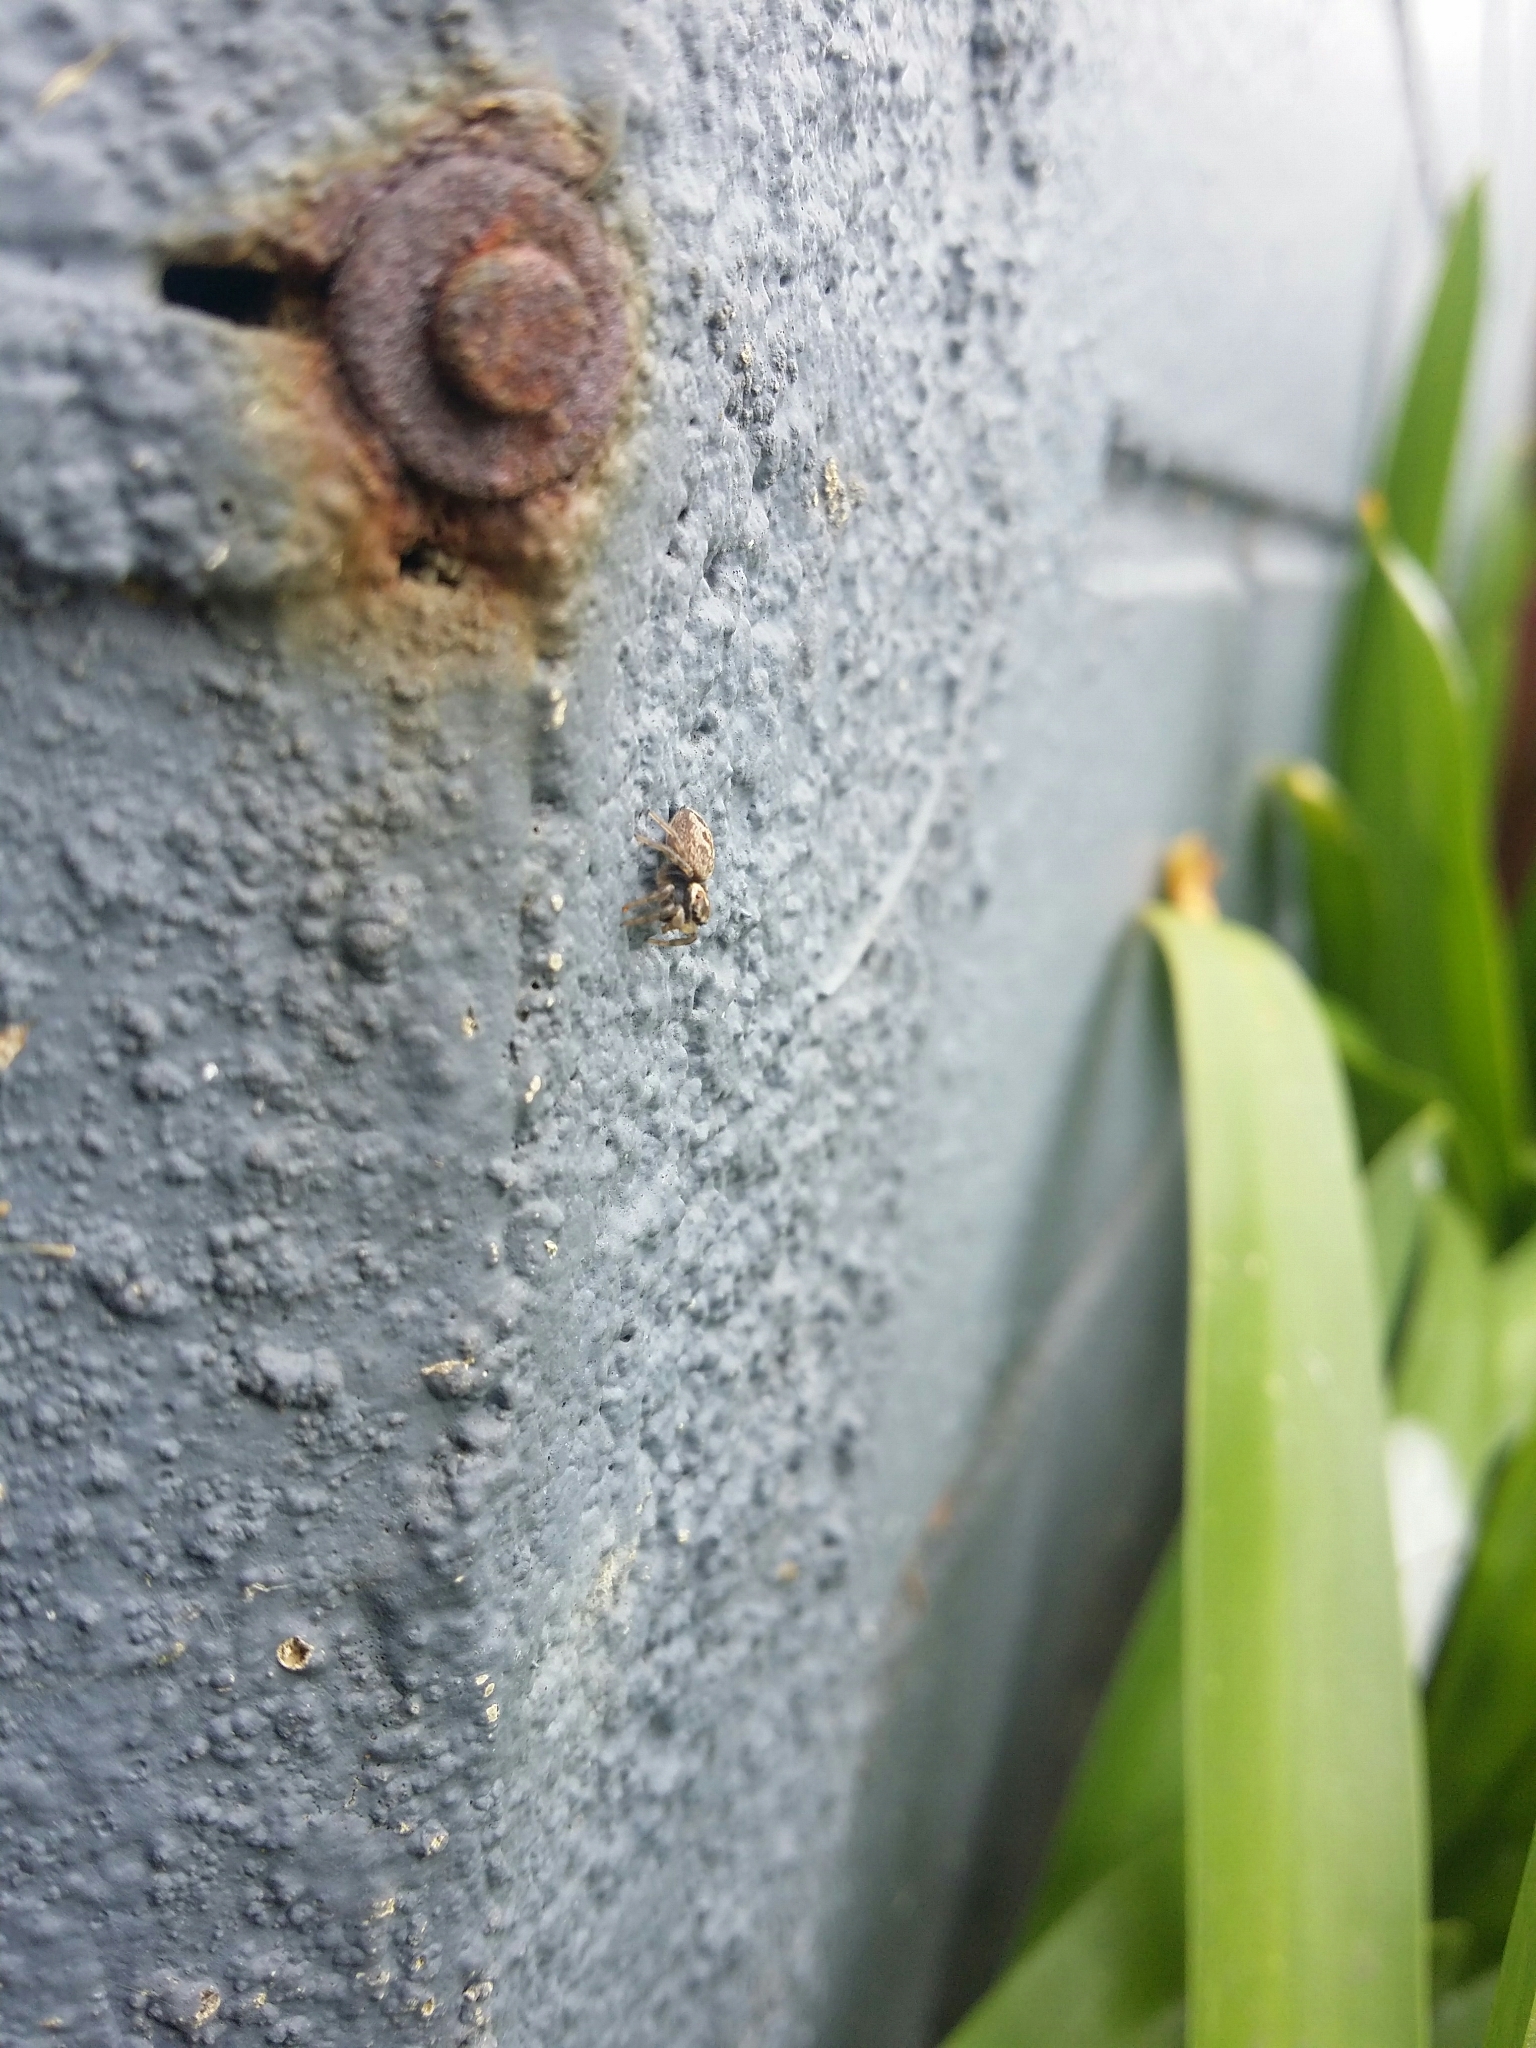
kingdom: Animalia
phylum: Arthropoda
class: Arachnida
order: Araneae
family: Salticidae
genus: Maratus
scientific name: Maratus griseus
